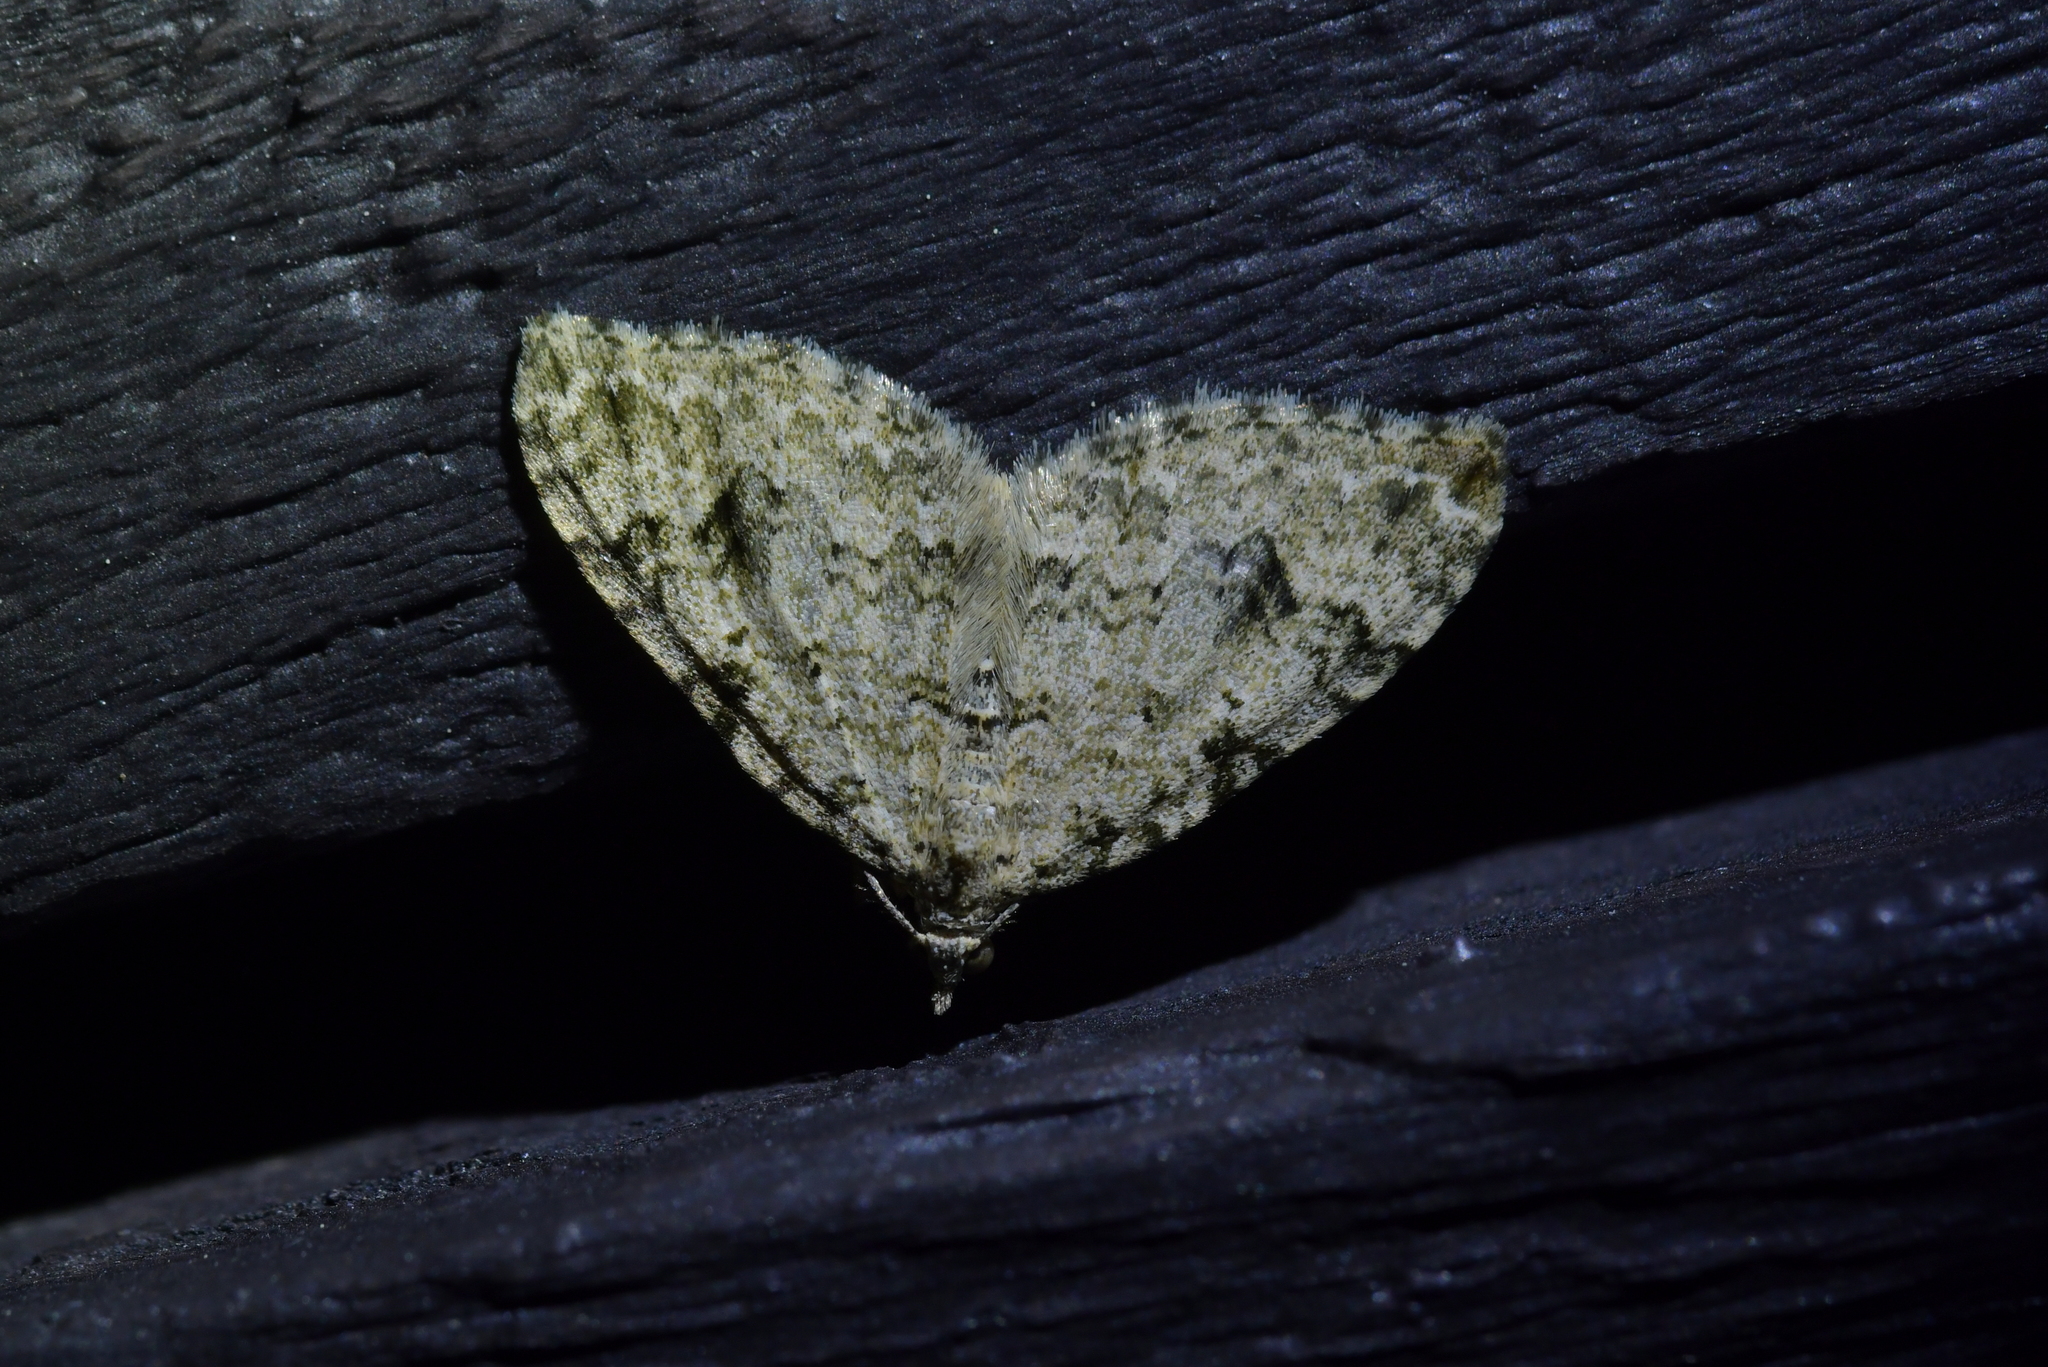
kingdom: Animalia
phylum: Arthropoda
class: Insecta
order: Lepidoptera
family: Geometridae
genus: Helastia
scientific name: Helastia cinerearia
